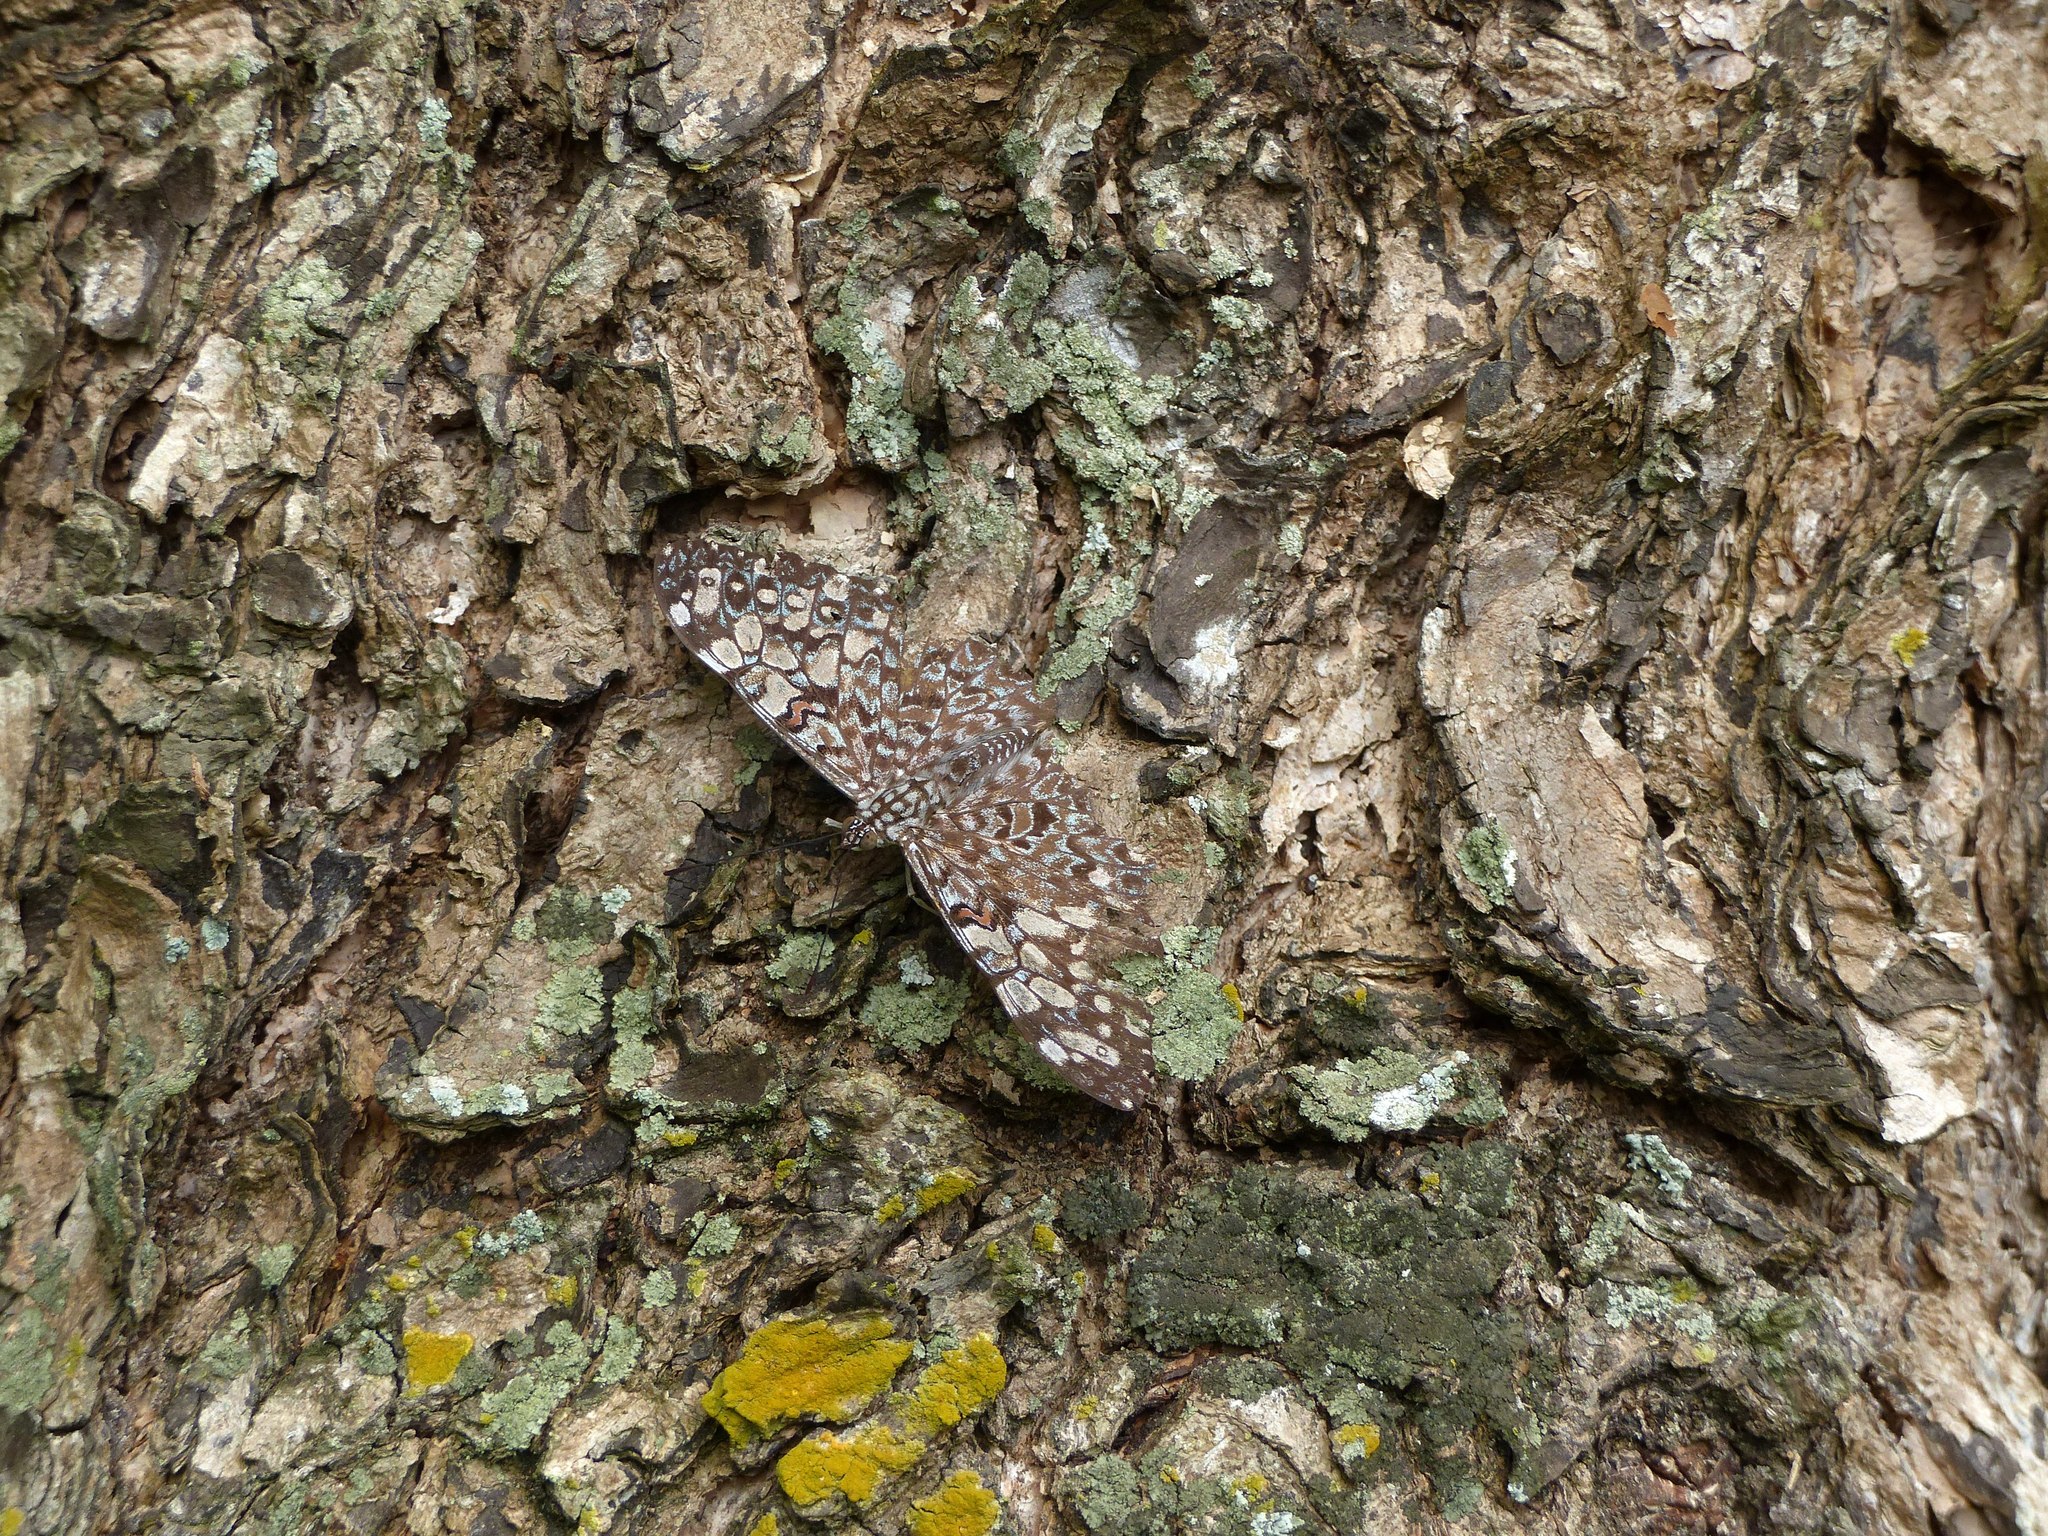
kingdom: Animalia
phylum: Arthropoda
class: Insecta
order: Lepidoptera
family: Nymphalidae
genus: Hamadryas
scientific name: Hamadryas feronia
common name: Variable cracker
